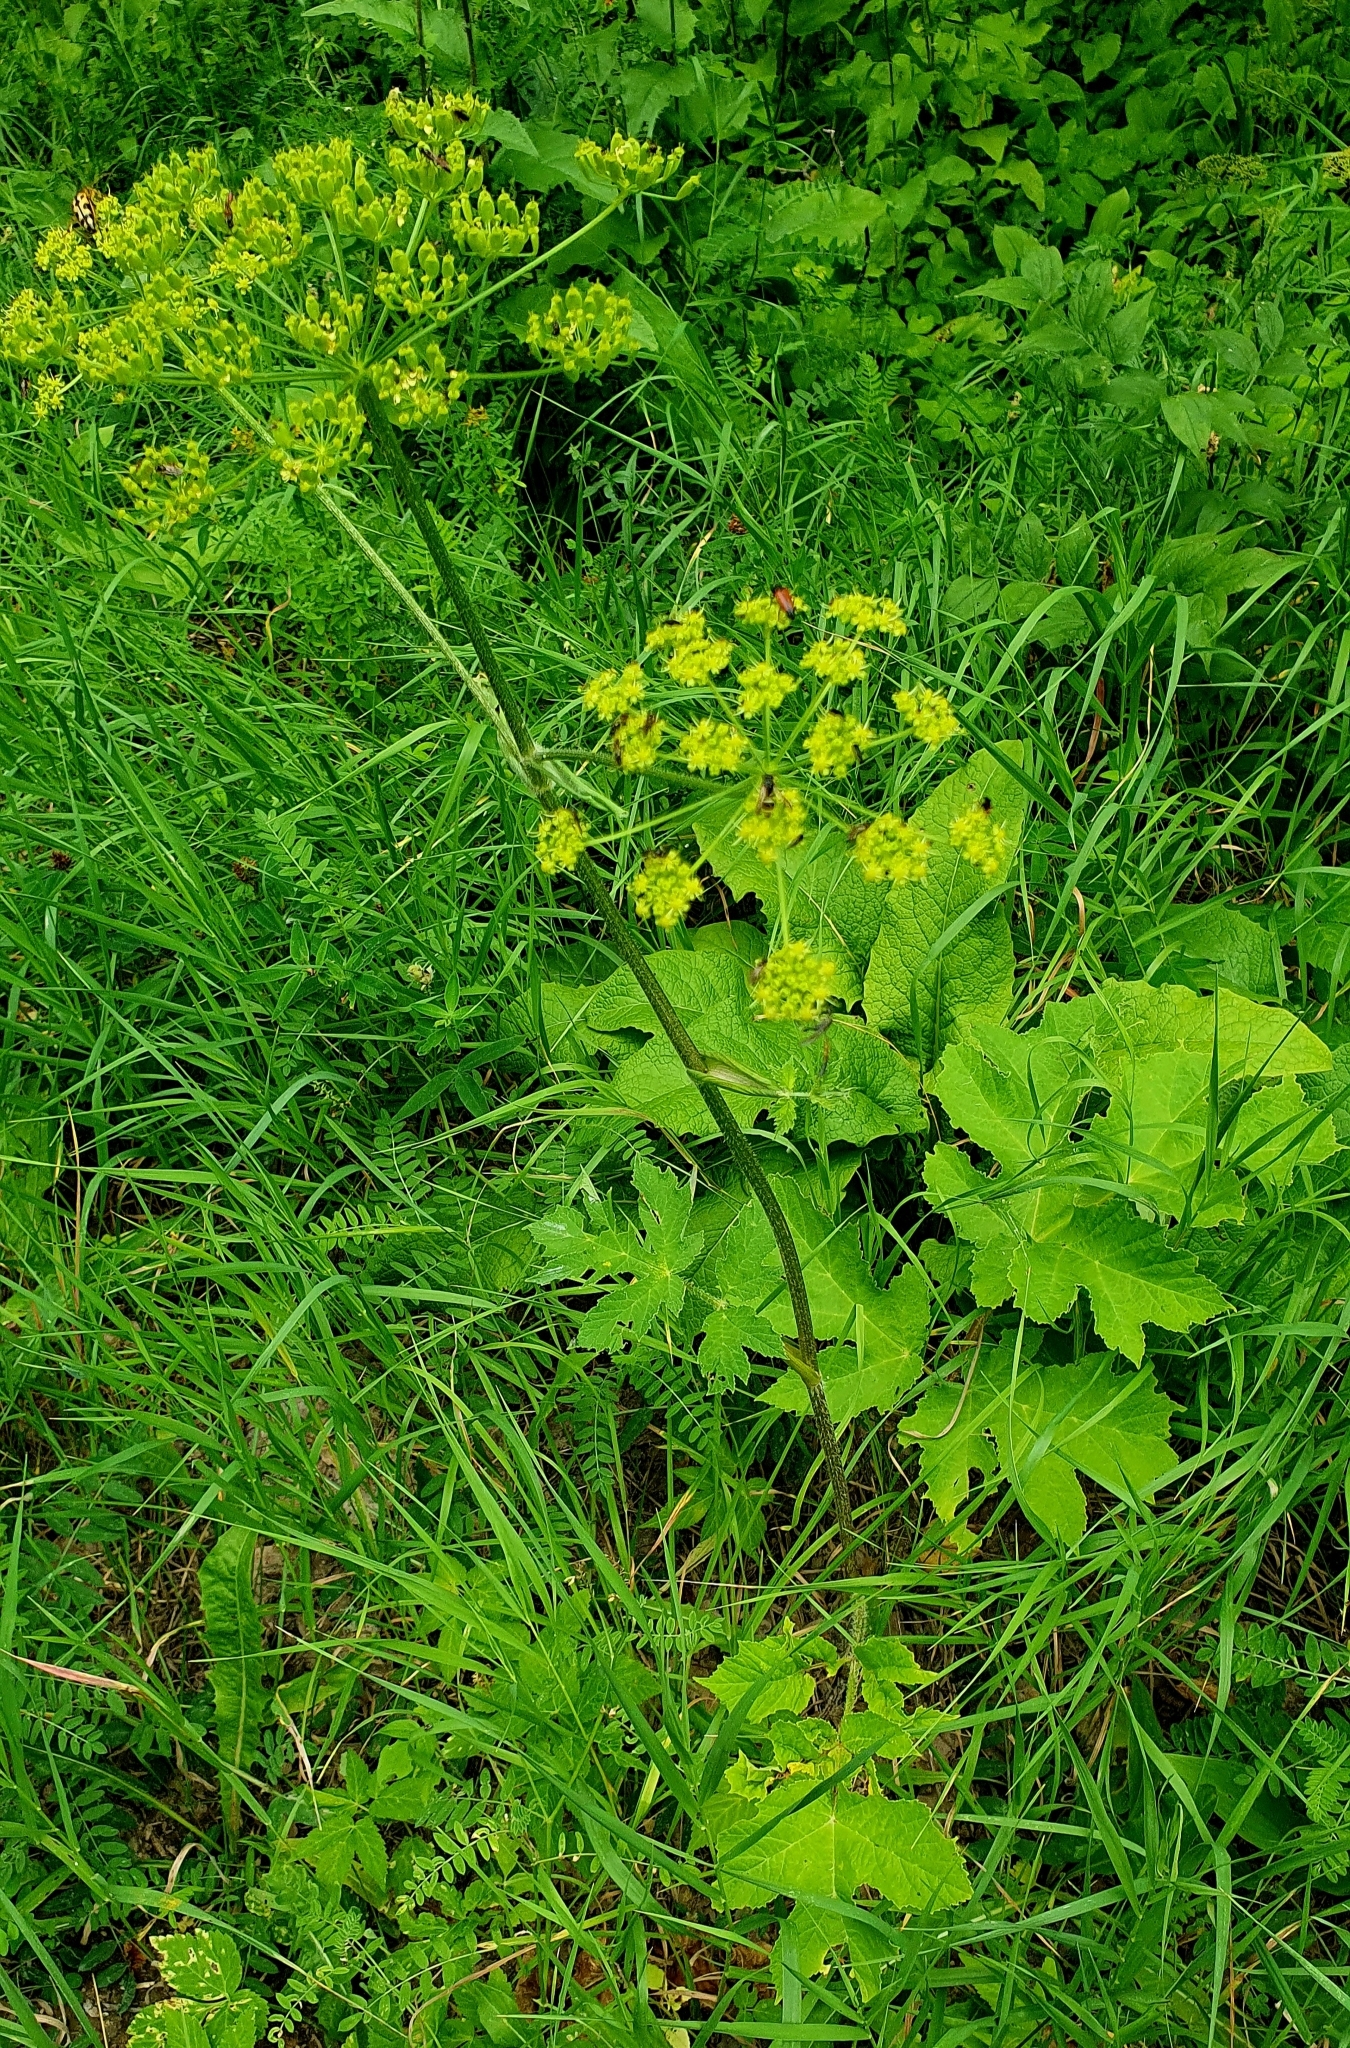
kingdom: Plantae
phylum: Tracheophyta
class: Magnoliopsida
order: Apiales
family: Apiaceae
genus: Heracleum
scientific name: Heracleum sphondylium
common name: Hogweed
